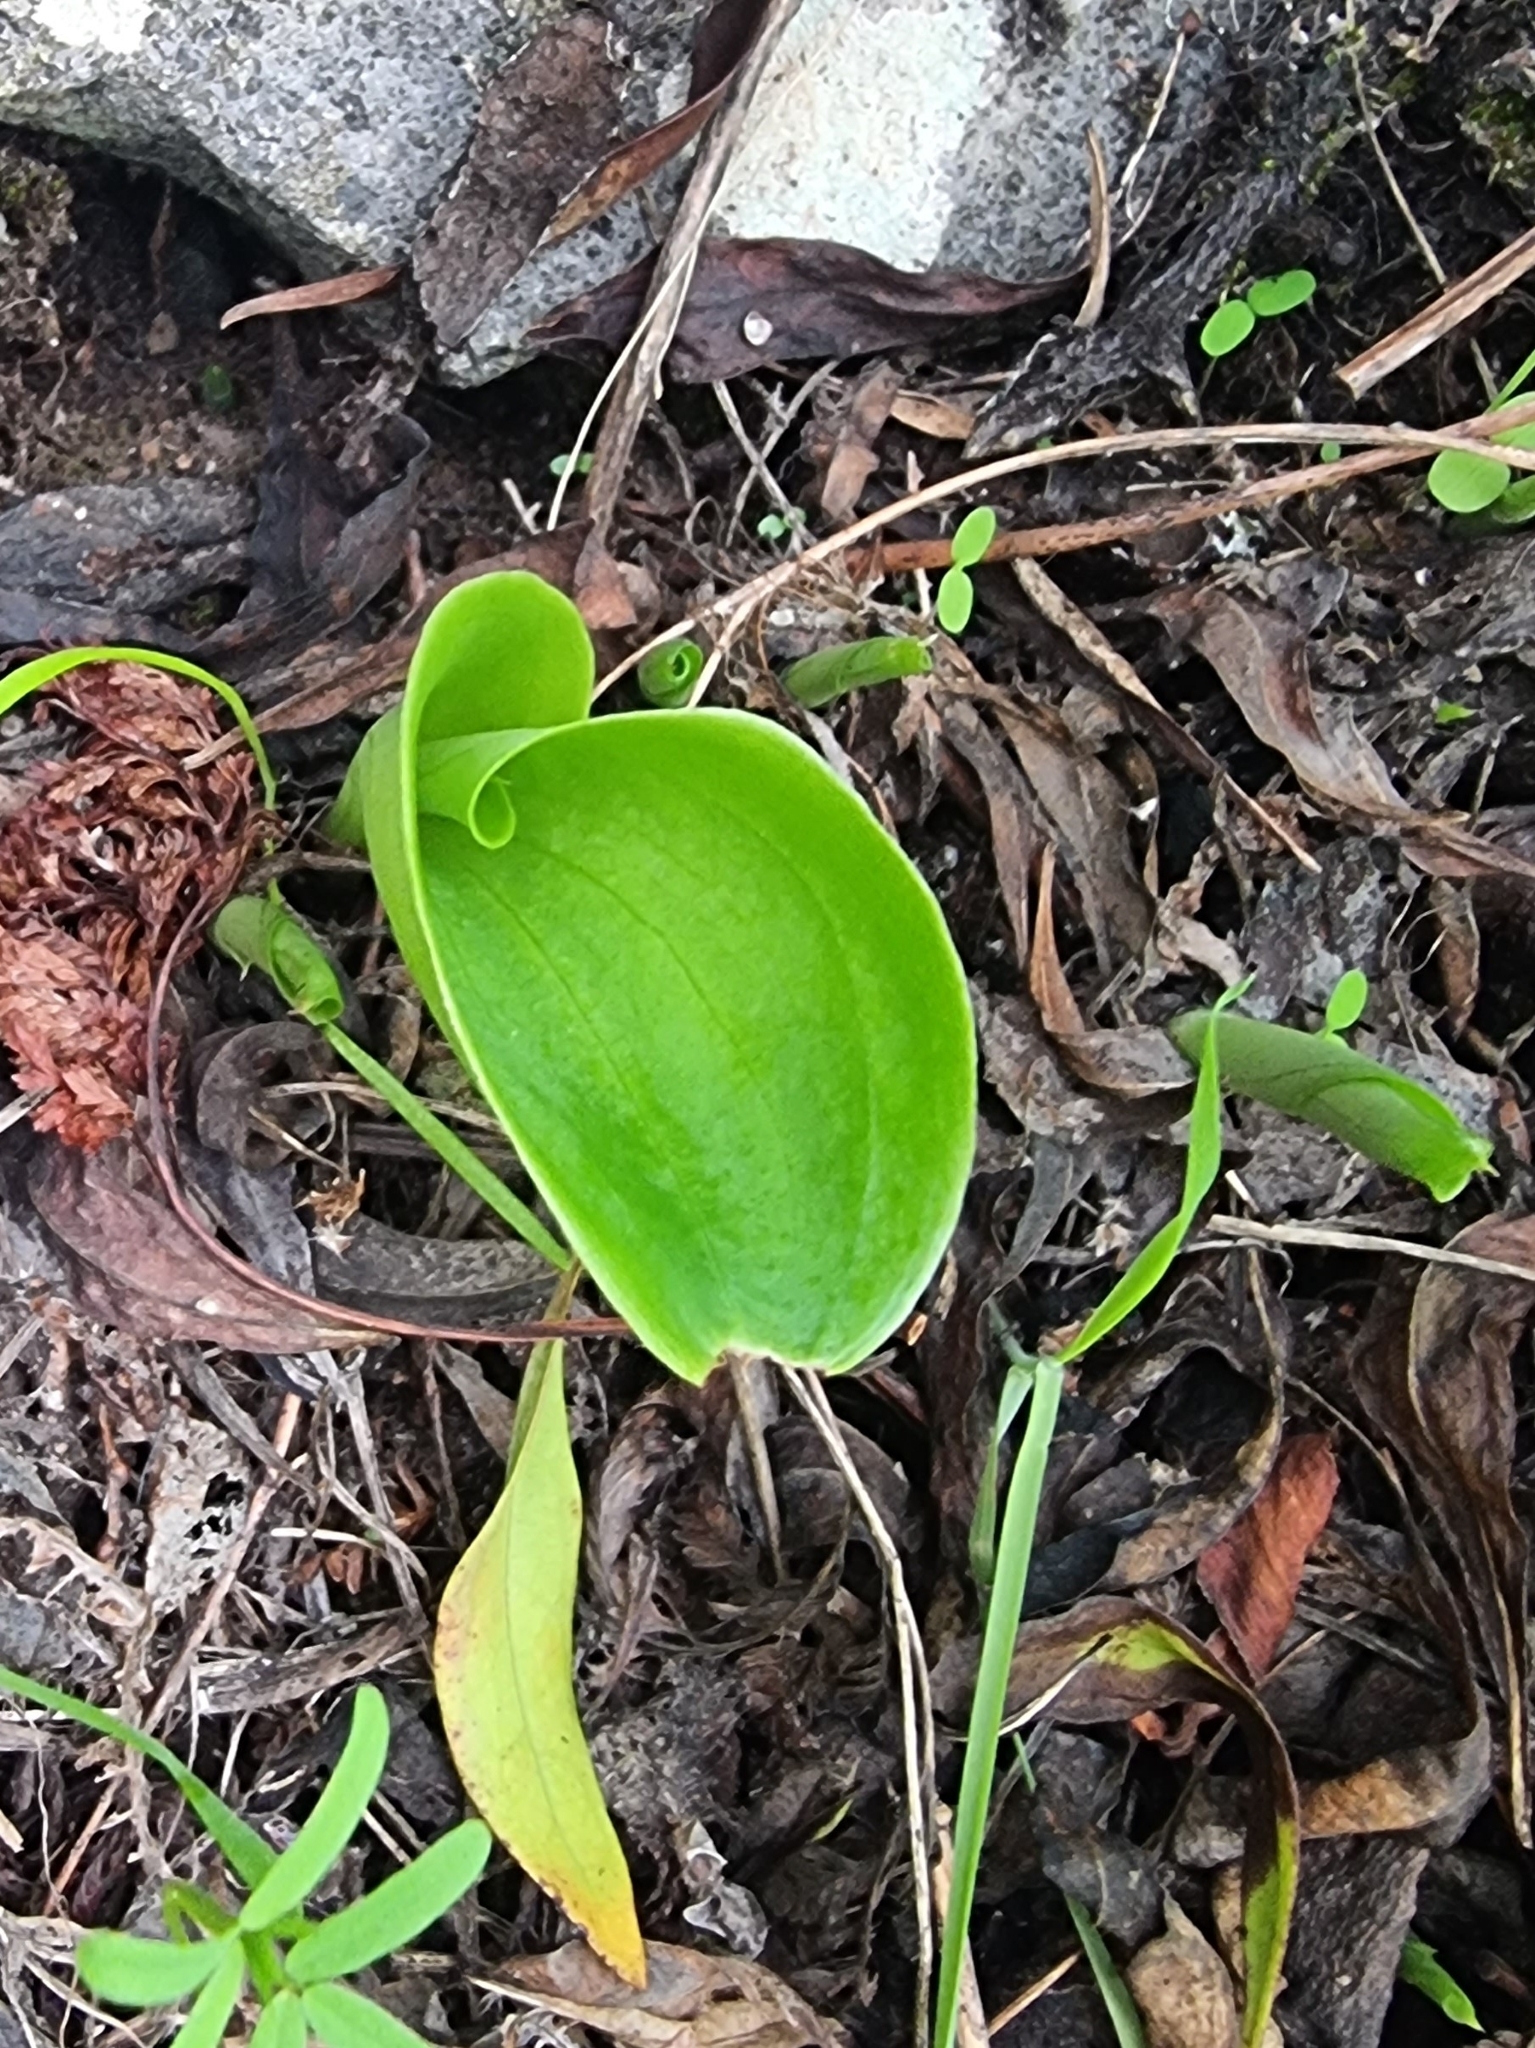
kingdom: Plantae
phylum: Tracheophyta
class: Liliopsida
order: Asparagales
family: Orchidaceae
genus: Gennaria
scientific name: Gennaria diphylla
